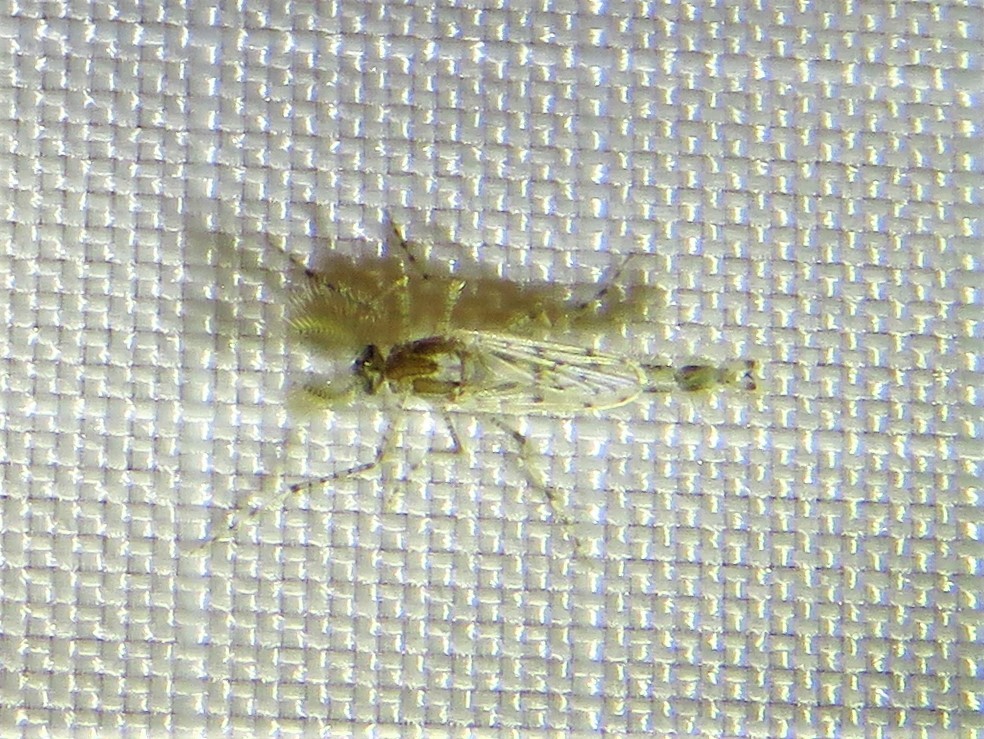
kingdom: Animalia
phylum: Arthropoda
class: Insecta
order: Diptera
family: Chaoboridae
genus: Chaoborus
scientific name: Chaoborus punctipennis
